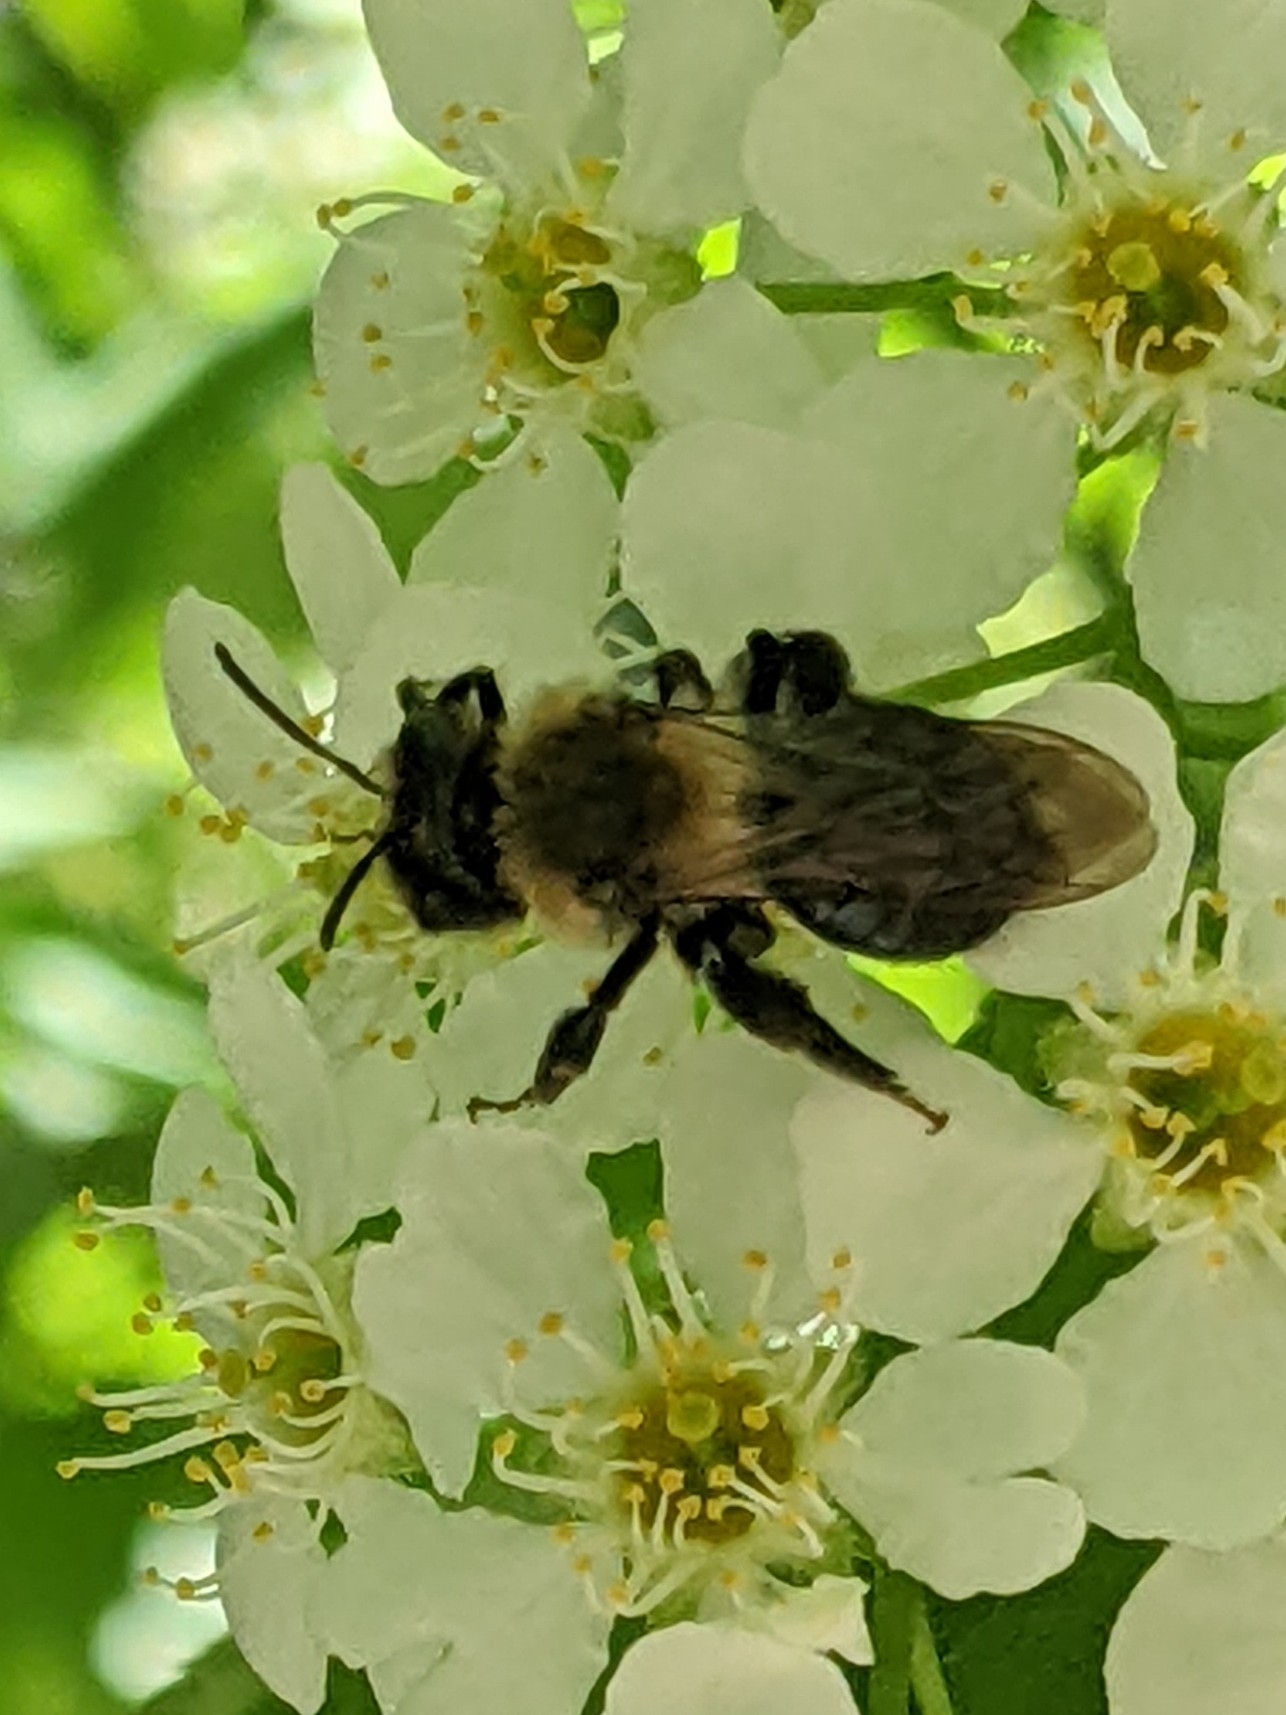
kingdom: Animalia
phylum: Arthropoda
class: Insecta
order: Hymenoptera
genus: Melandrena
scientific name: Melandrena
